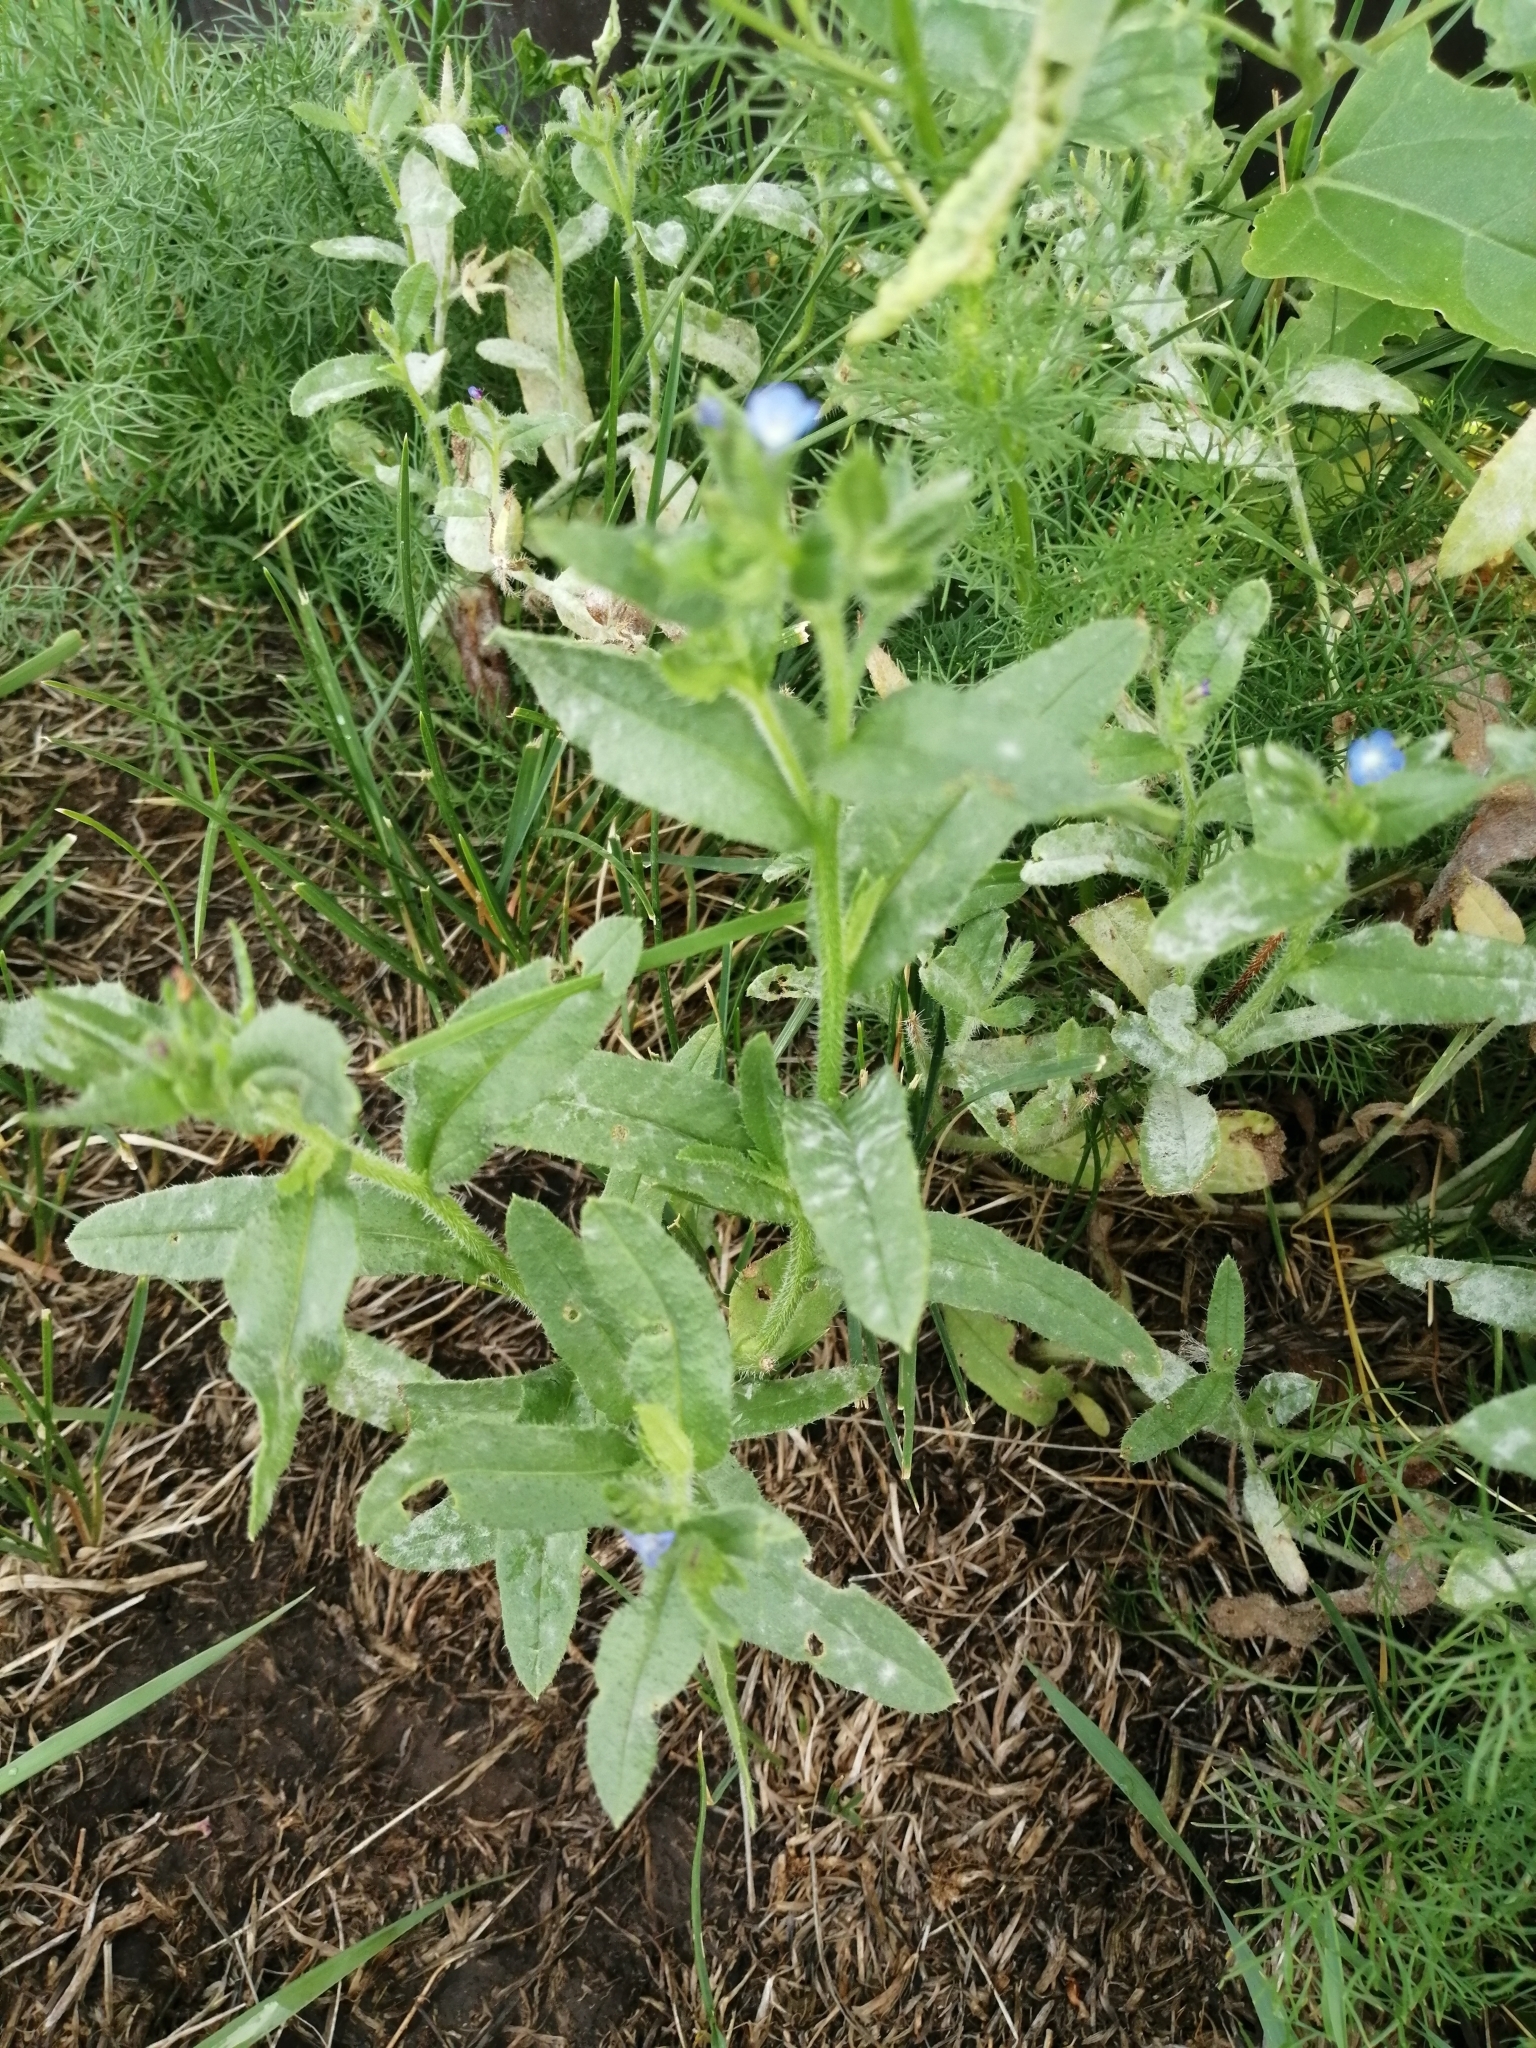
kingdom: Plantae
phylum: Tracheophyta
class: Magnoliopsida
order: Boraginales
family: Boraginaceae
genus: Lycopsis
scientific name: Lycopsis arvensis
